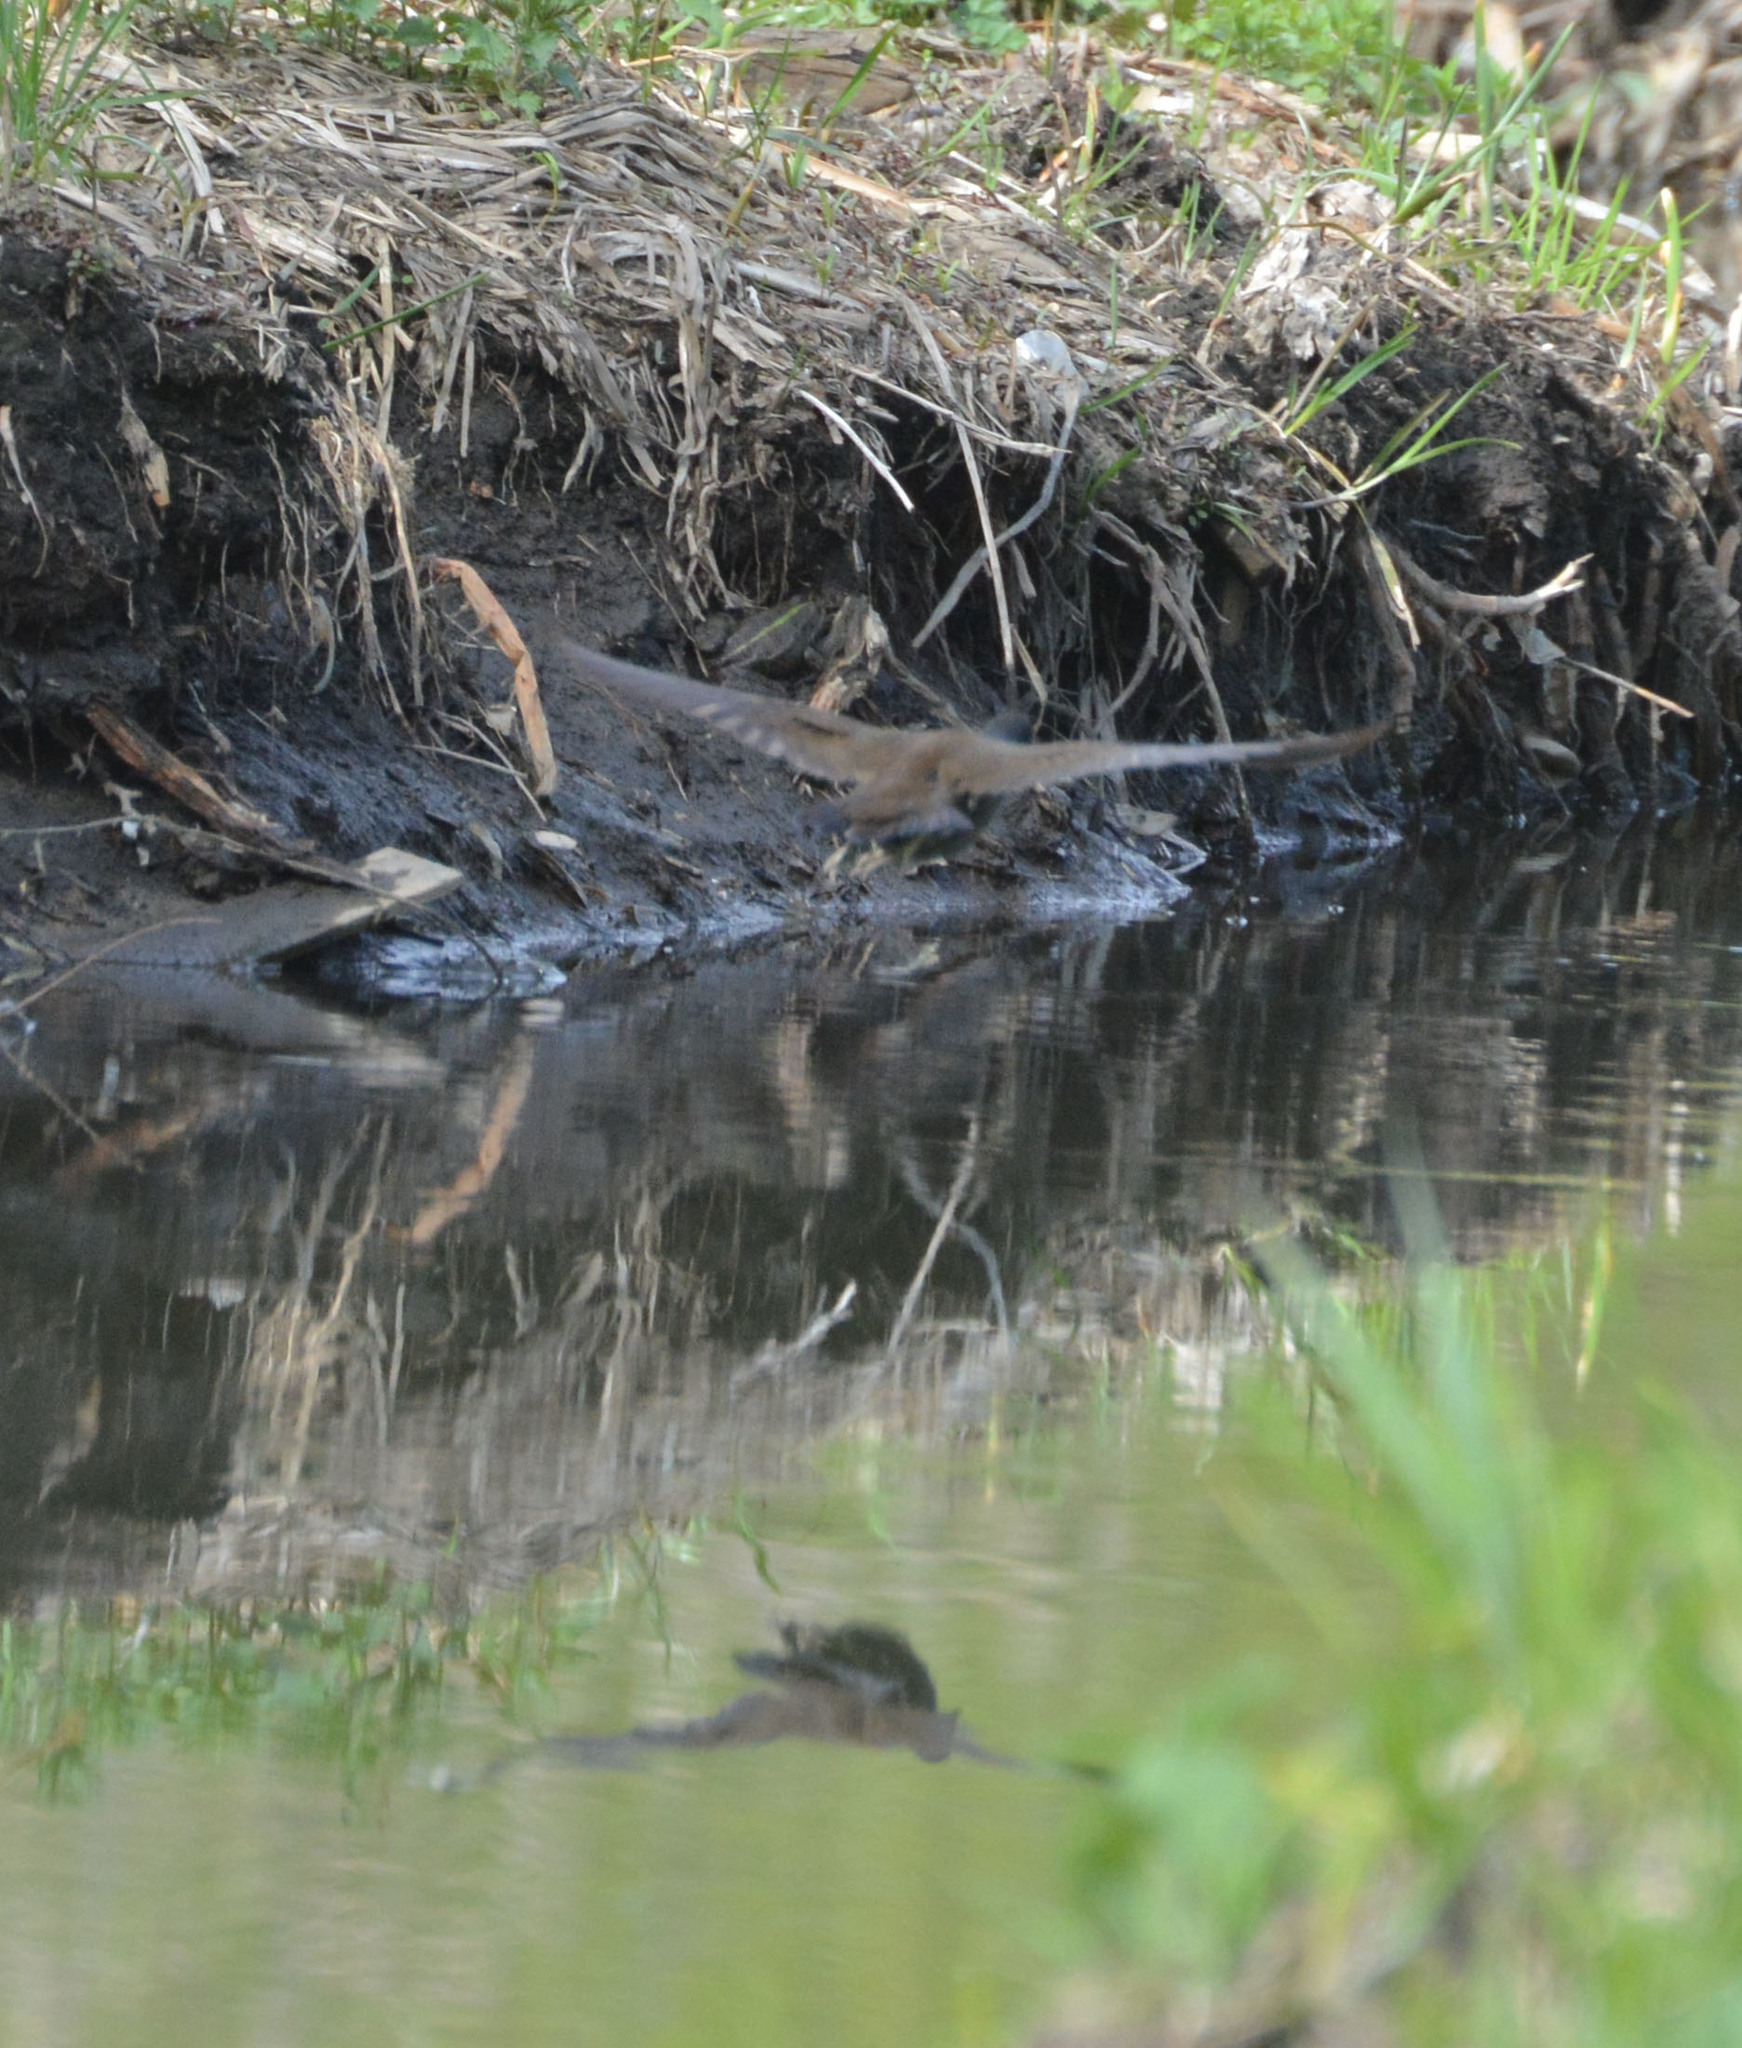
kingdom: Animalia
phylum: Chordata
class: Aves
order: Gruiformes
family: Rallidae
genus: Gallinula
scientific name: Gallinula chloropus
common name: Common moorhen
